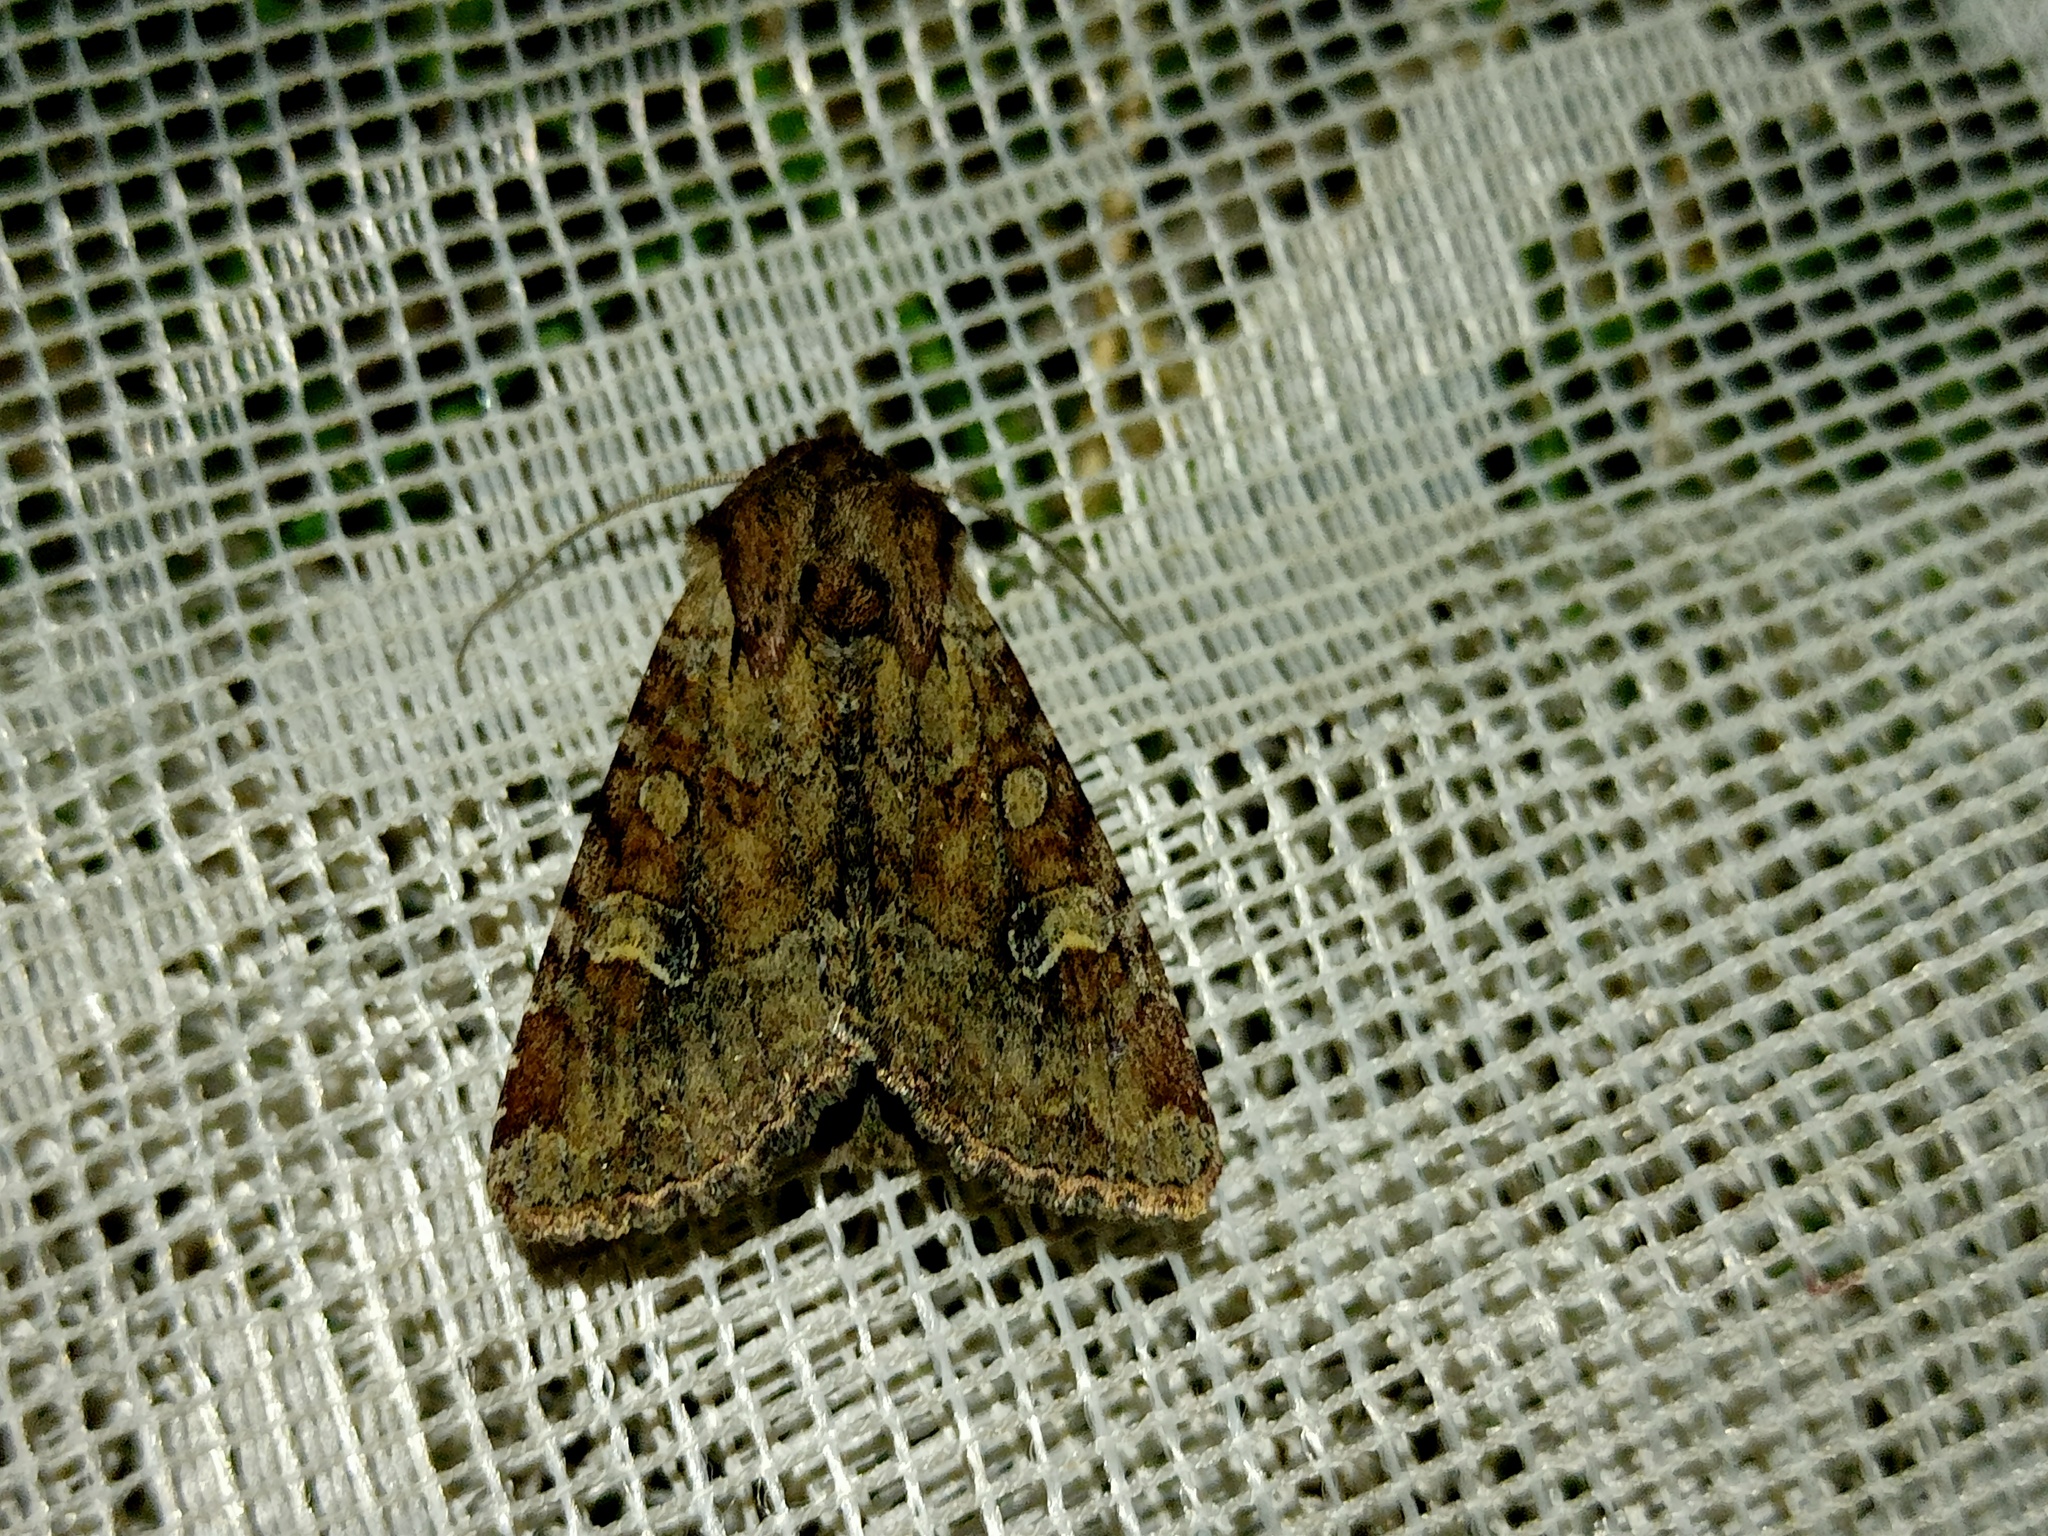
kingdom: Animalia
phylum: Arthropoda
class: Insecta
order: Lepidoptera
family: Noctuidae
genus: Apamea
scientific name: Apamea sordens
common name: Rustic shoulder-knot
